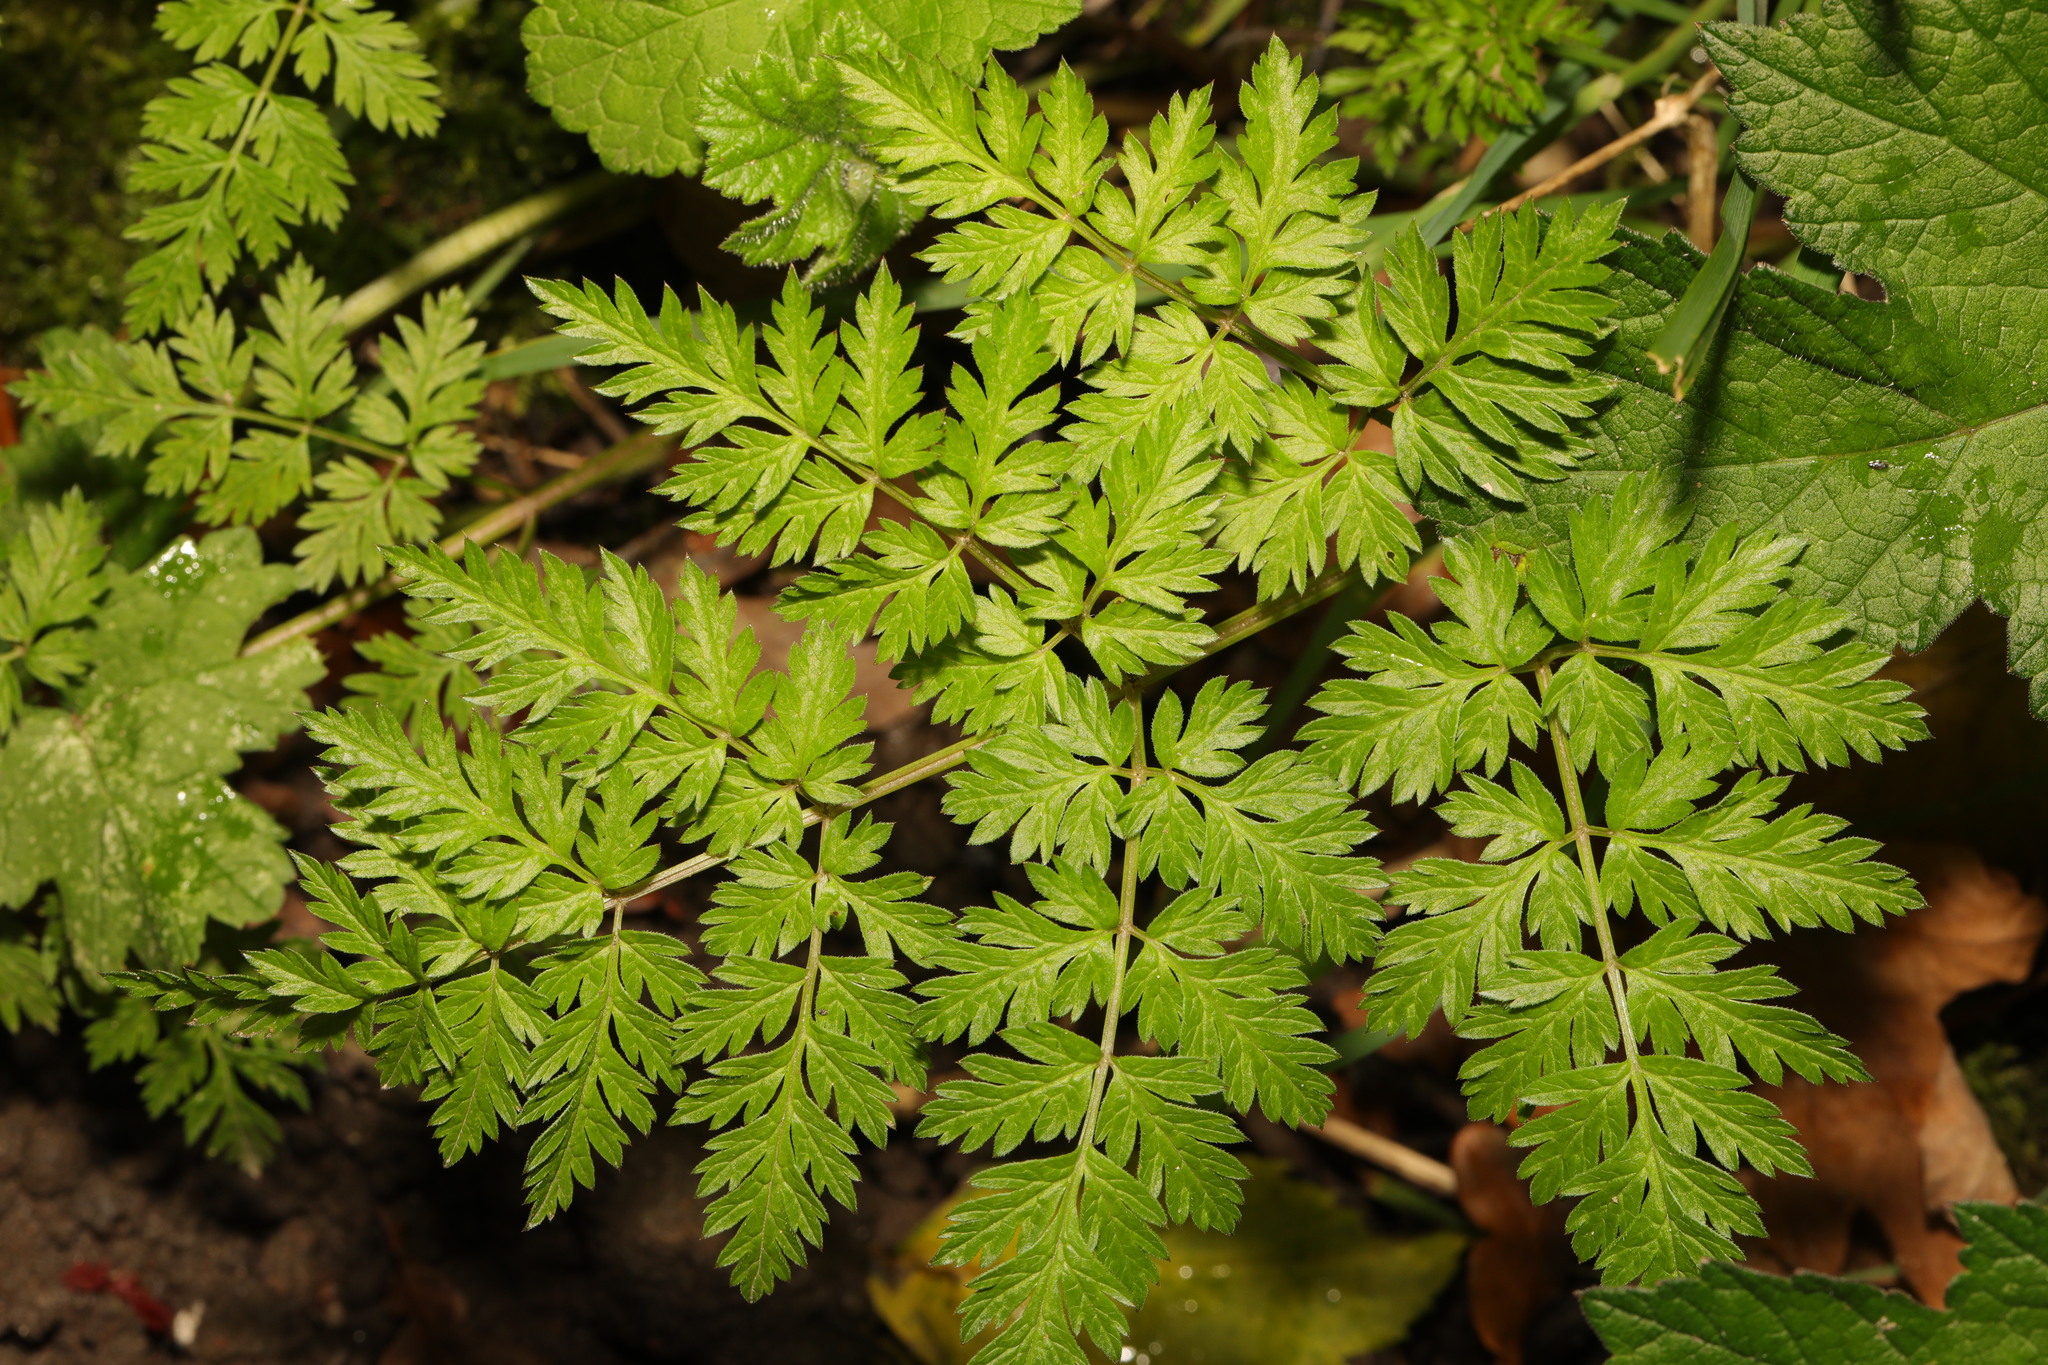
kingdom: Plantae
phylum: Tracheophyta
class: Magnoliopsida
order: Apiales
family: Apiaceae
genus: Anthriscus
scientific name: Anthriscus sylvestris
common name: Cow parsley
